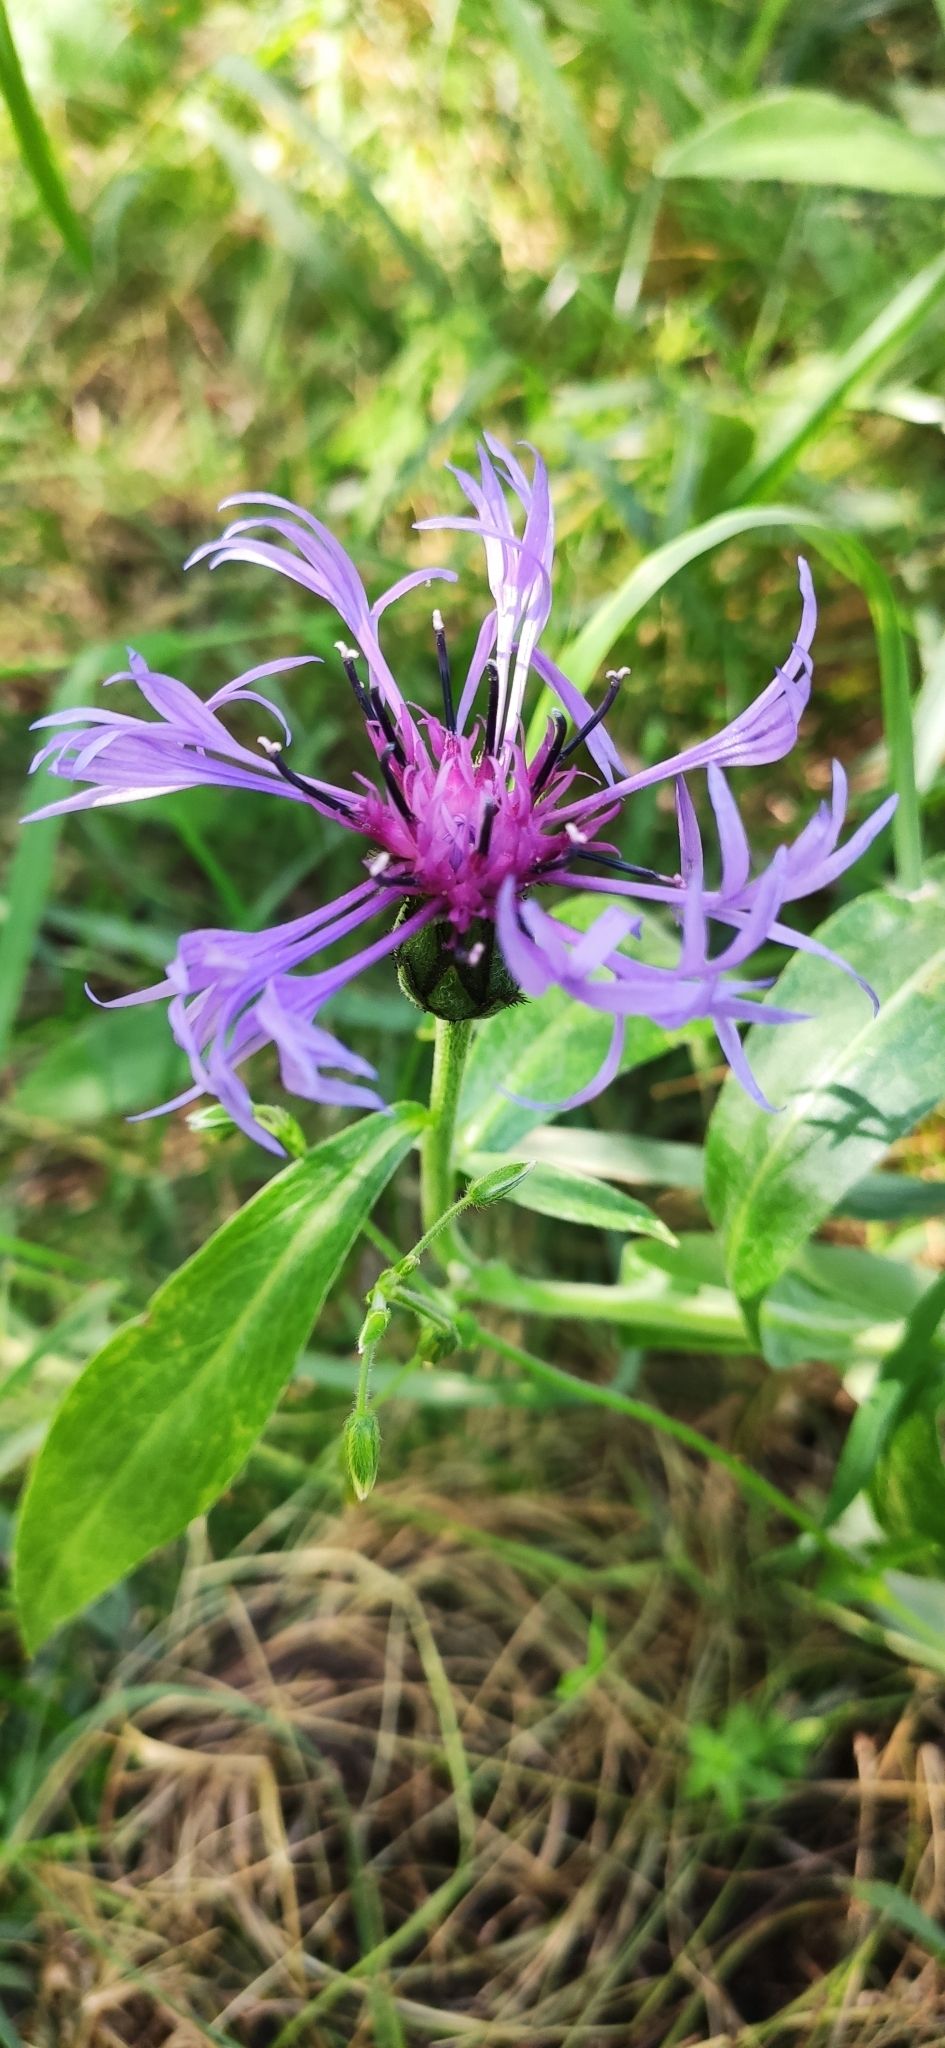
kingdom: Plantae
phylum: Tracheophyta
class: Magnoliopsida
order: Asterales
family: Asteraceae
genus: Centaurea
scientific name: Centaurea montana
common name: Perennial cornflower
